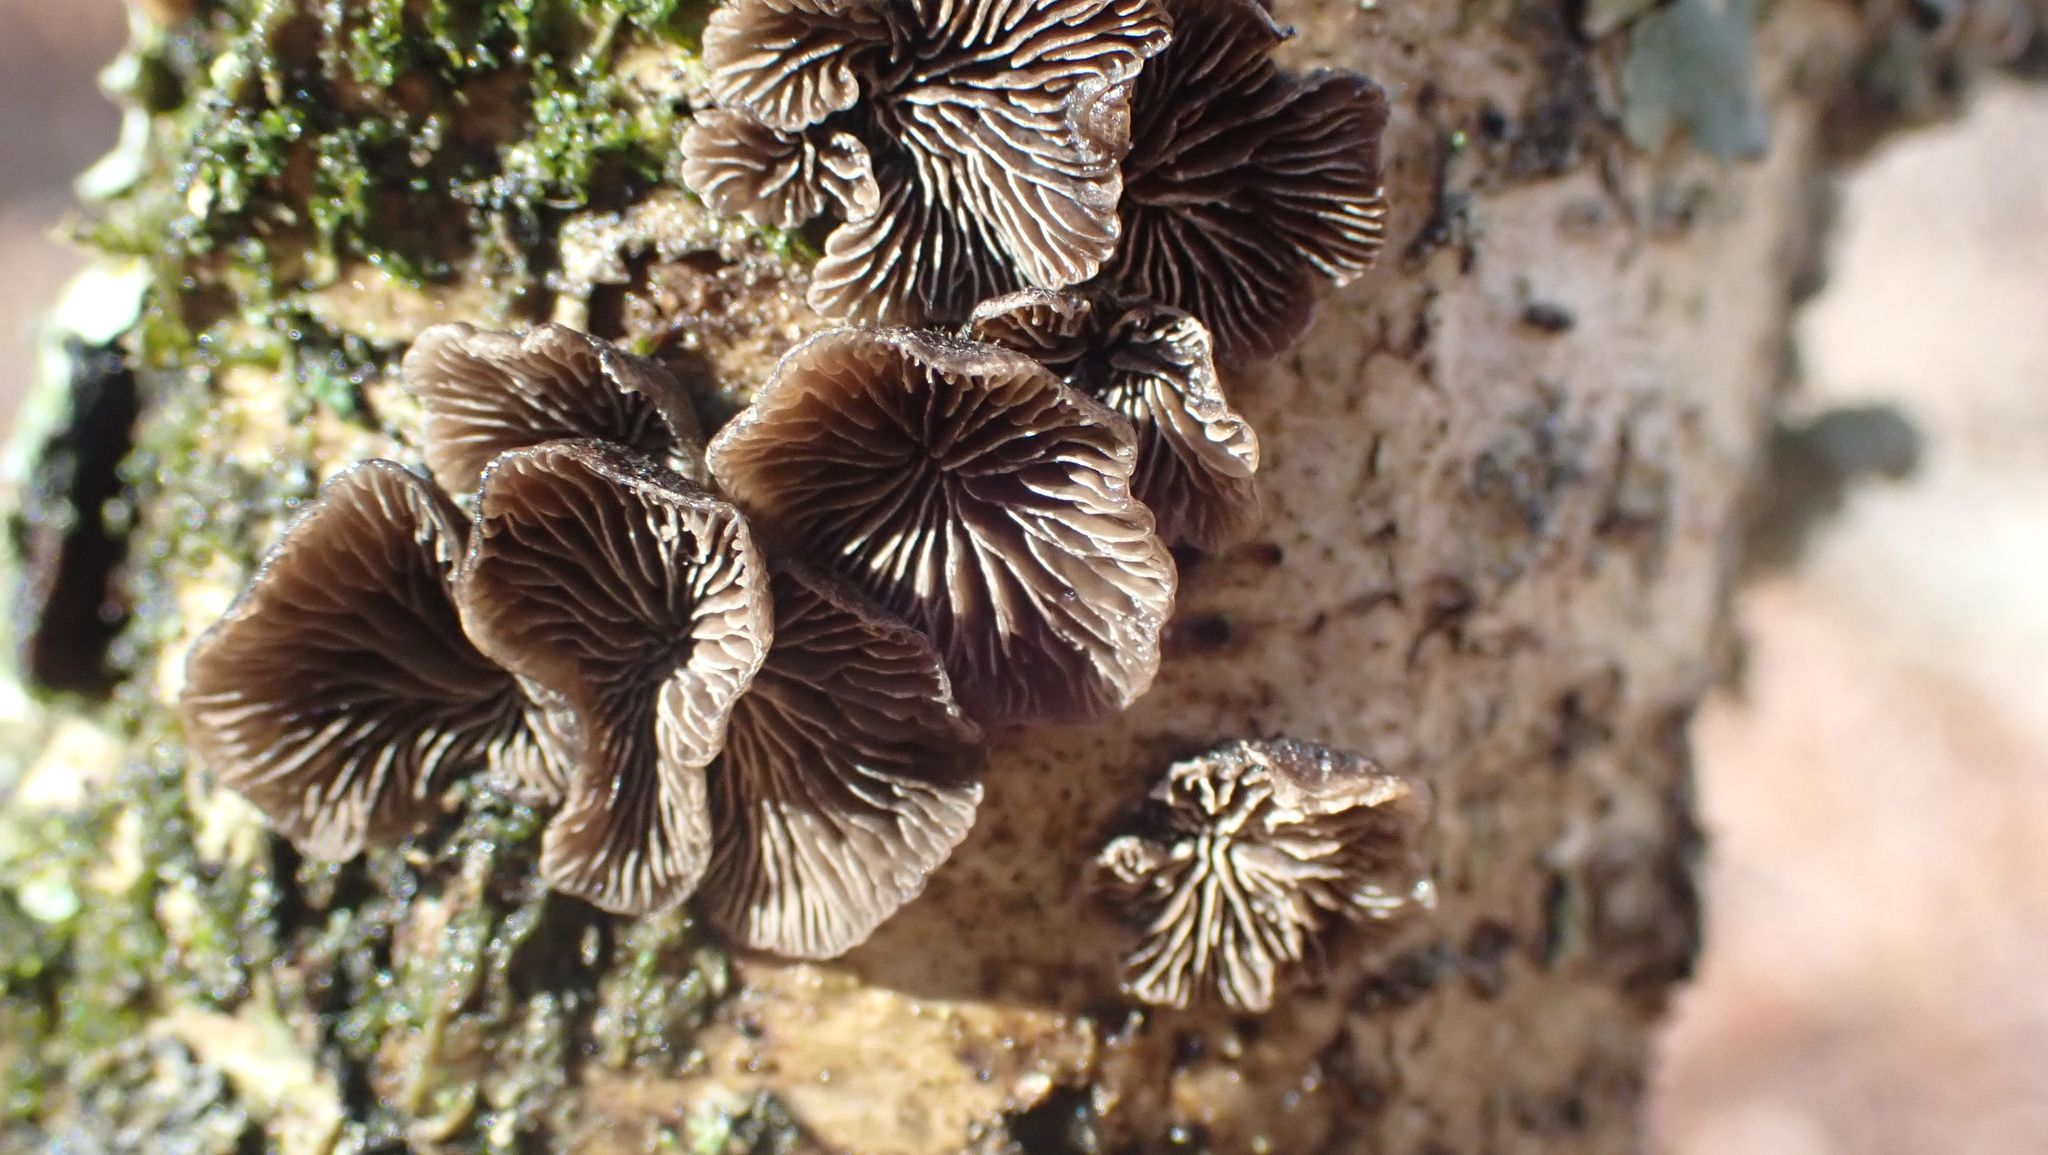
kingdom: Fungi
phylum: Basidiomycota
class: Agaricomycetes
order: Agaricales
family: Pleurotaceae
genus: Resupinatus
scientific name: Resupinatus applicatus
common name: Smoked oysterling
